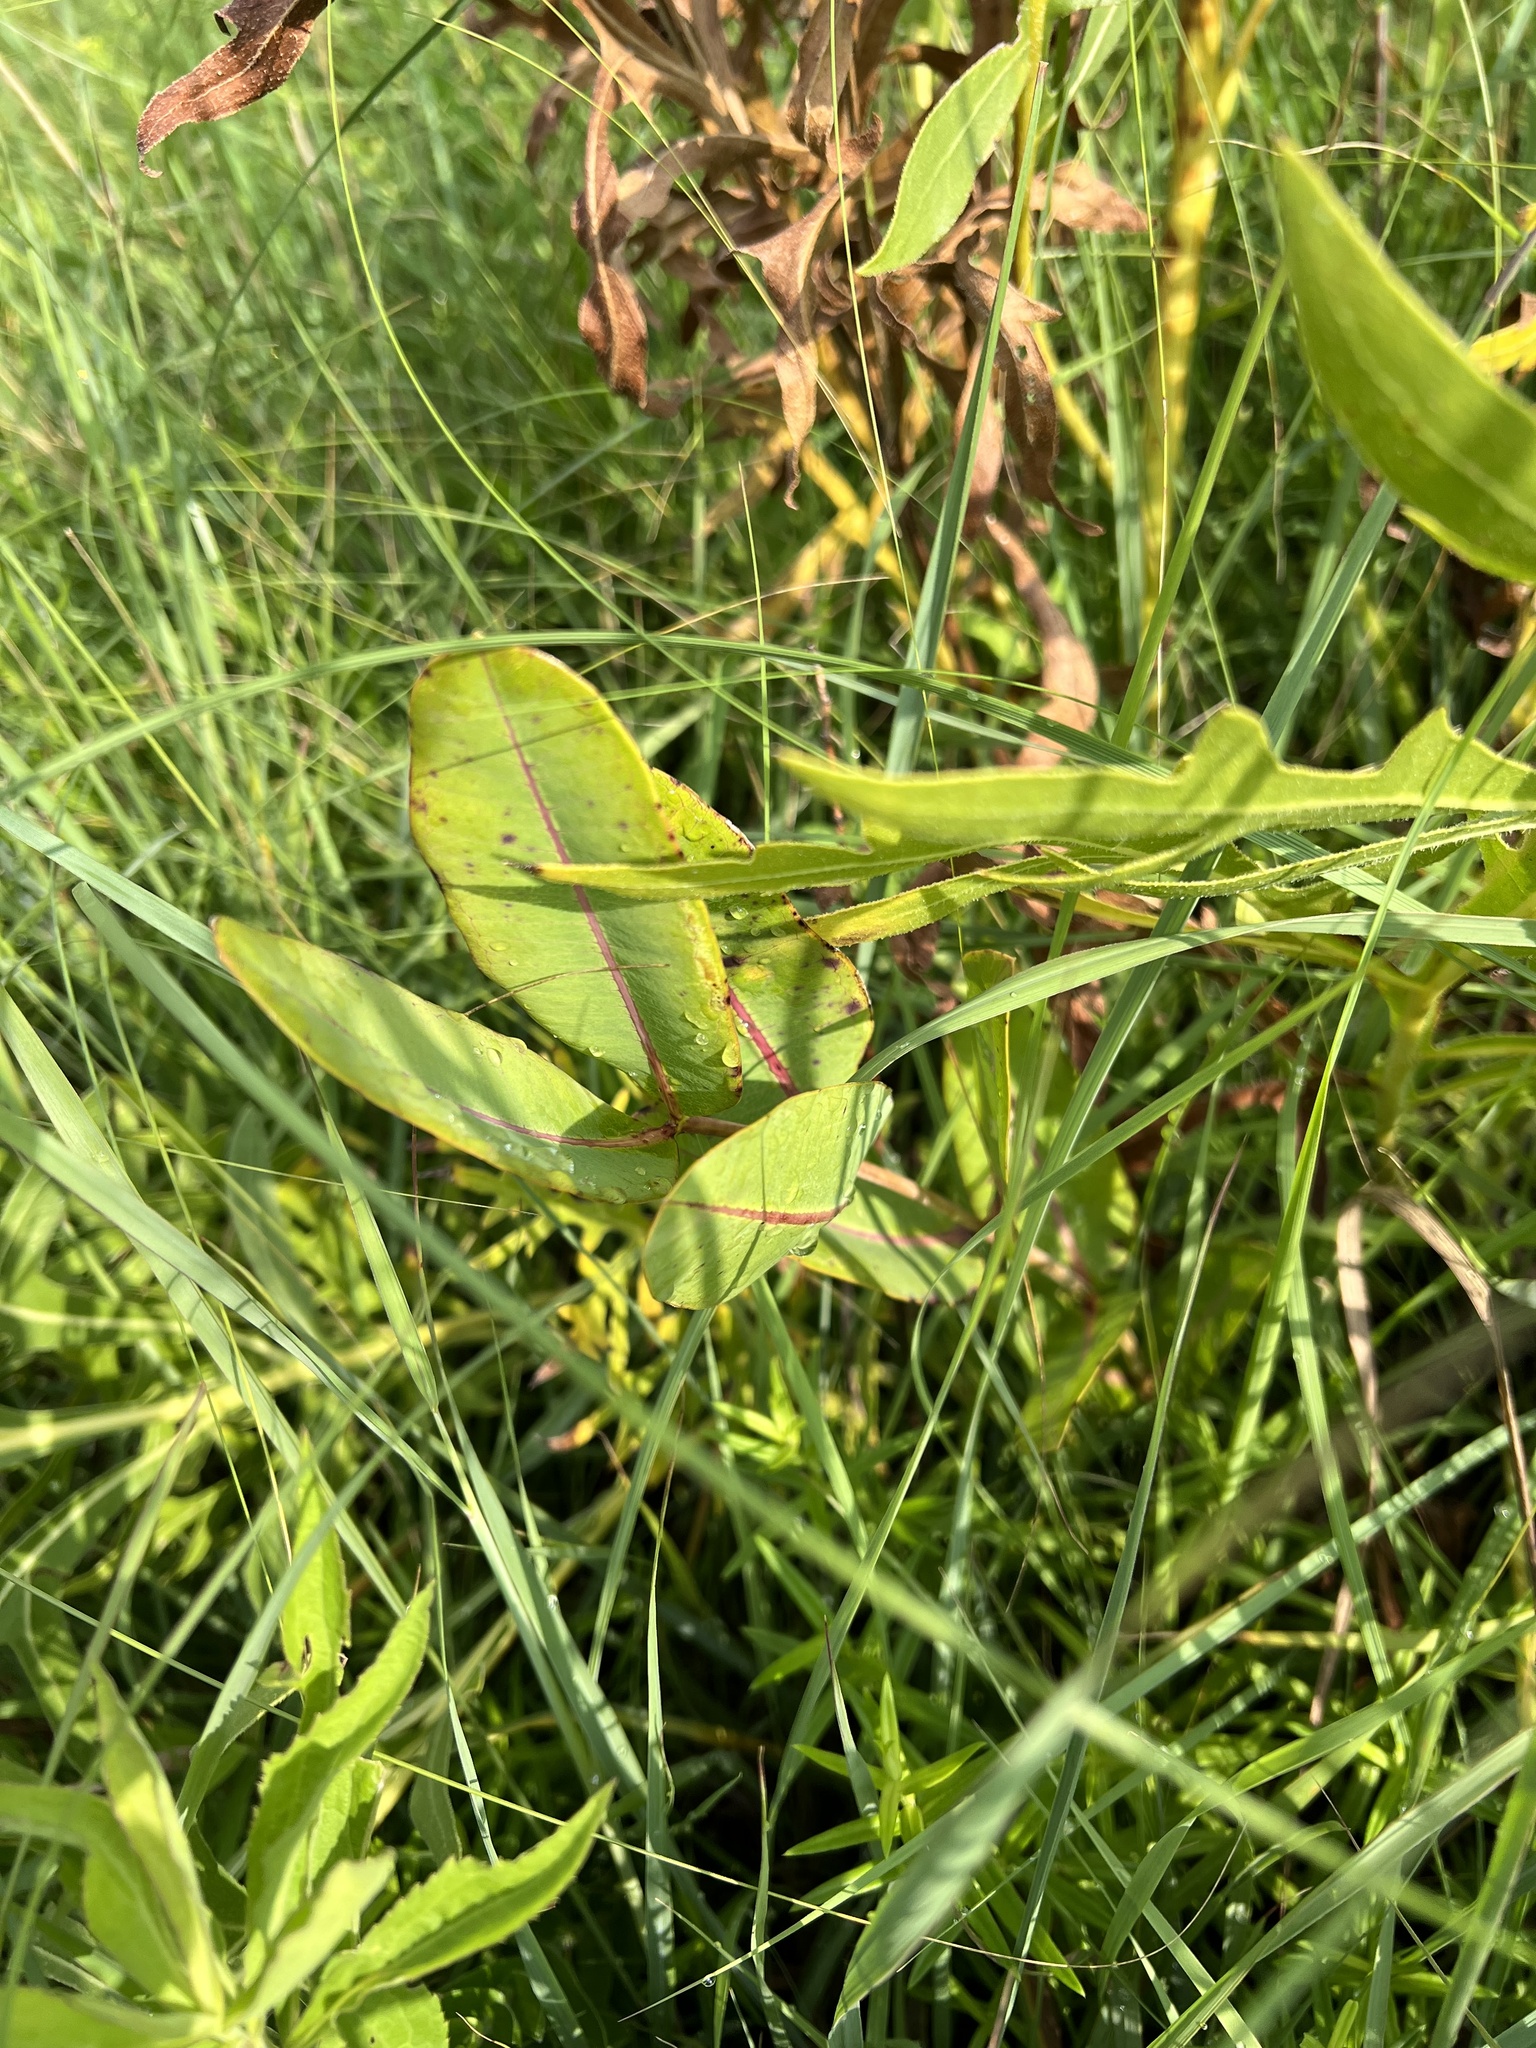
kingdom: Plantae
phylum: Tracheophyta
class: Magnoliopsida
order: Gentianales
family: Apocynaceae
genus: Asclepias
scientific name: Asclepias sullivantii
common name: Prairie milkweed
